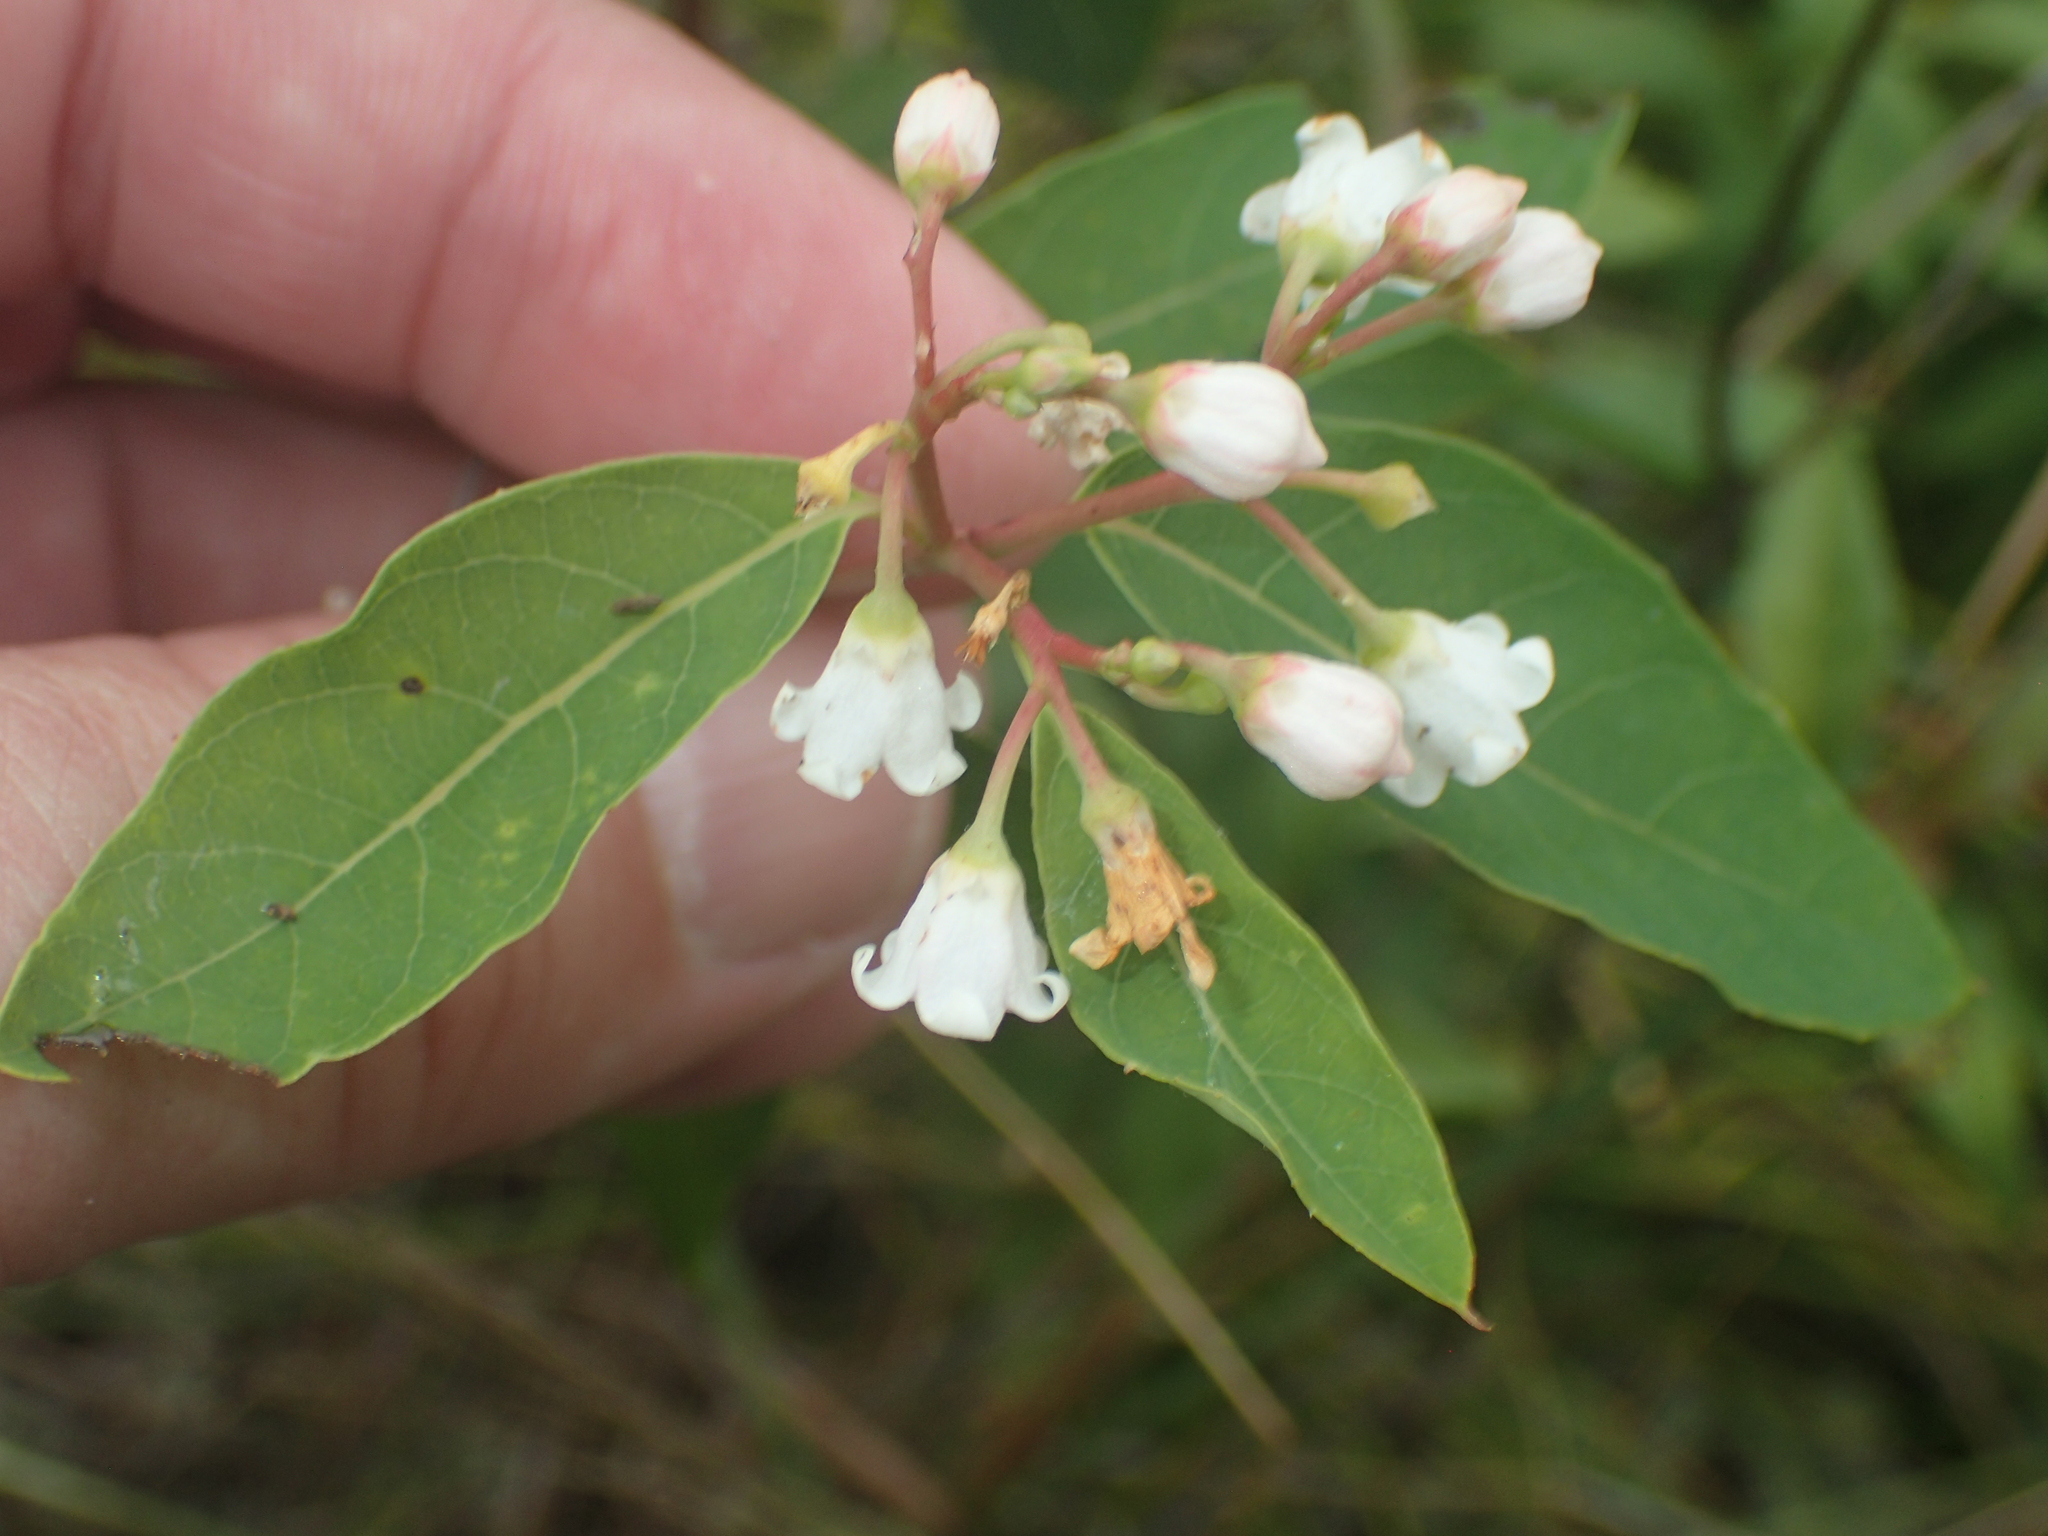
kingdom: Plantae
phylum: Tracheophyta
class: Magnoliopsida
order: Gentianales
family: Apocynaceae
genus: Apocynum
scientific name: Apocynum androsaemifolium
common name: Spreading dogbane
